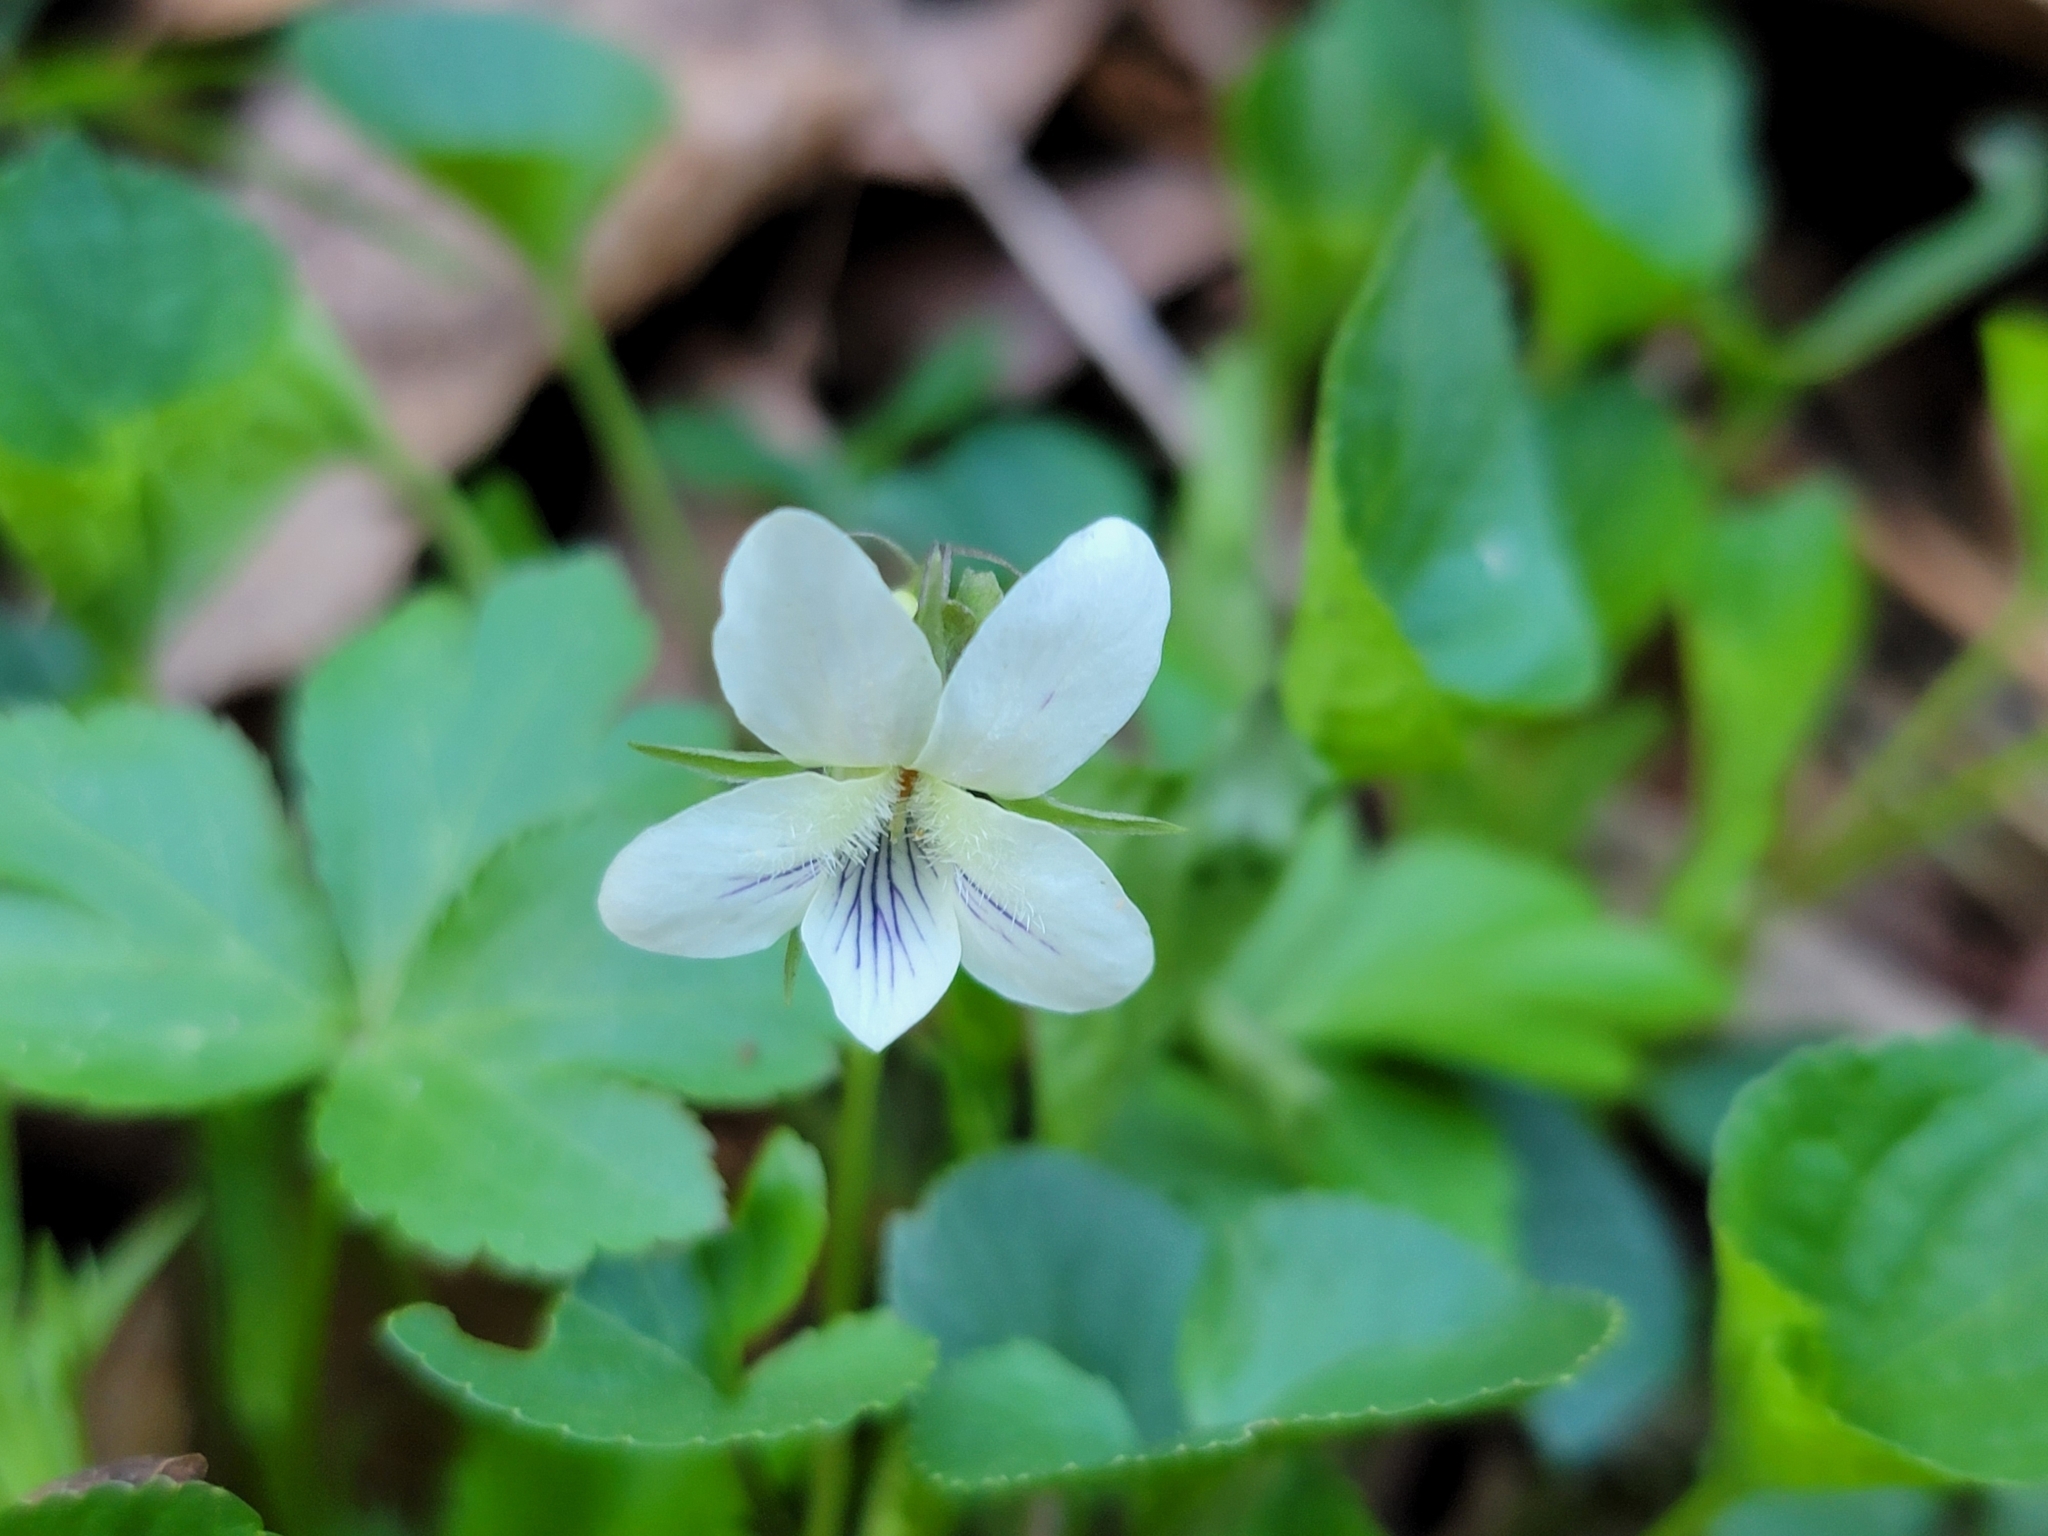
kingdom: Plantae
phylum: Tracheophyta
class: Magnoliopsida
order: Malpighiales
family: Violaceae
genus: Viola
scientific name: Viola striata
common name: Cream violet
